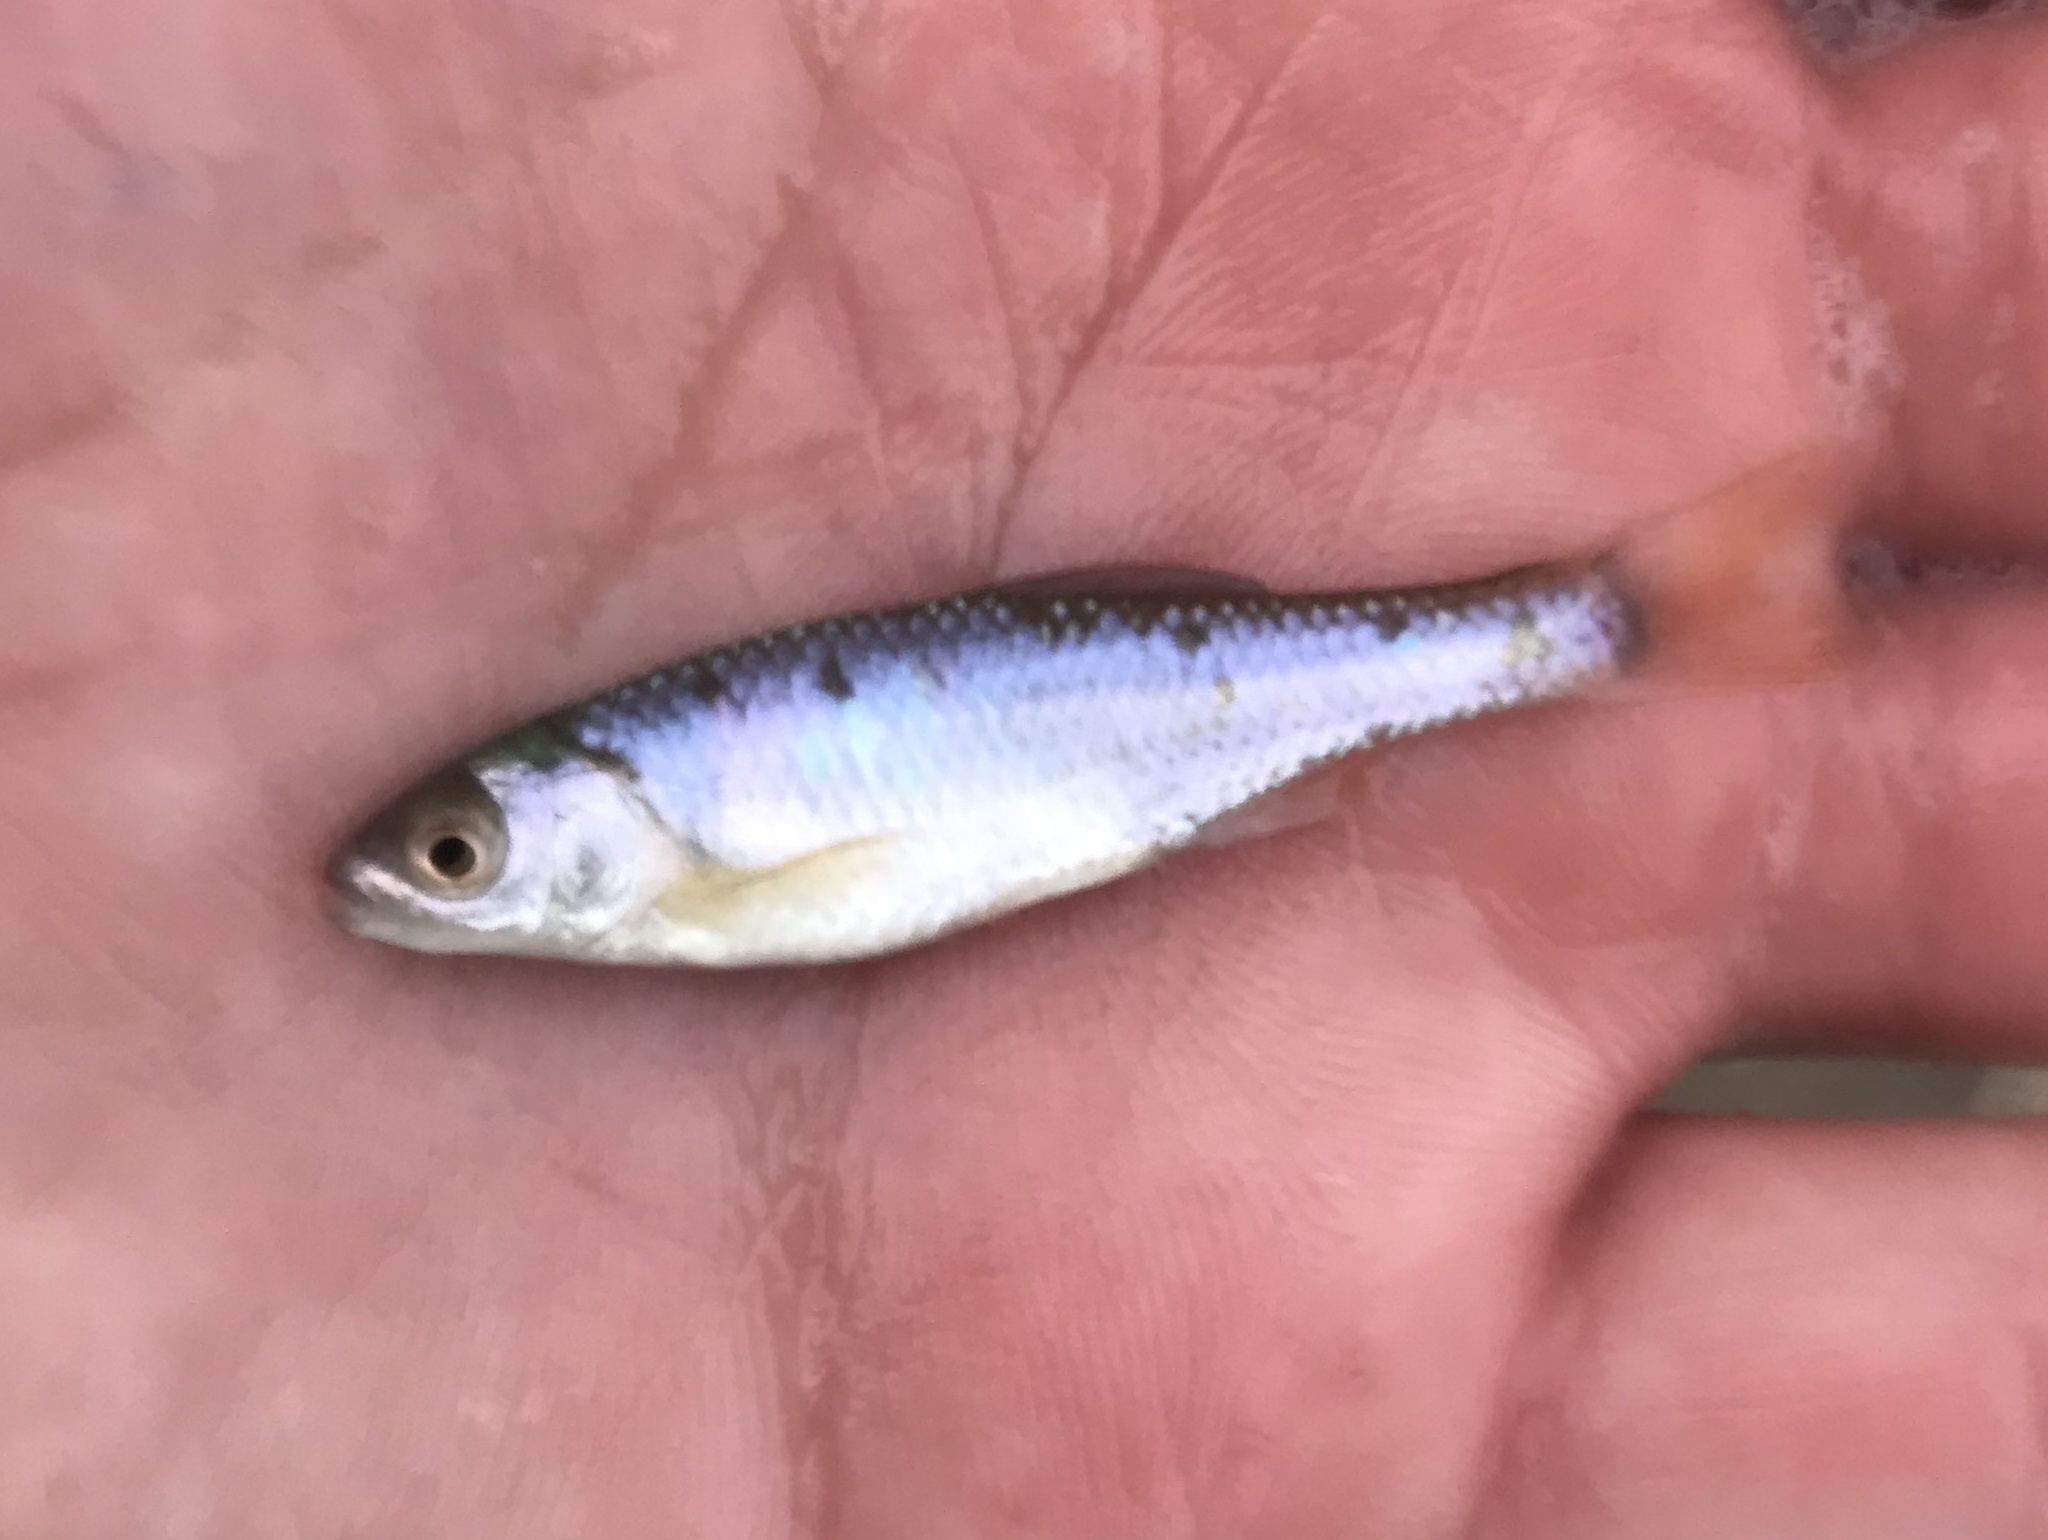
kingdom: Animalia
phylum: Chordata
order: Cypriniformes
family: Cyprinidae
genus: Cyprinella
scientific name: Cyprinella lutrensis
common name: Red shiner
